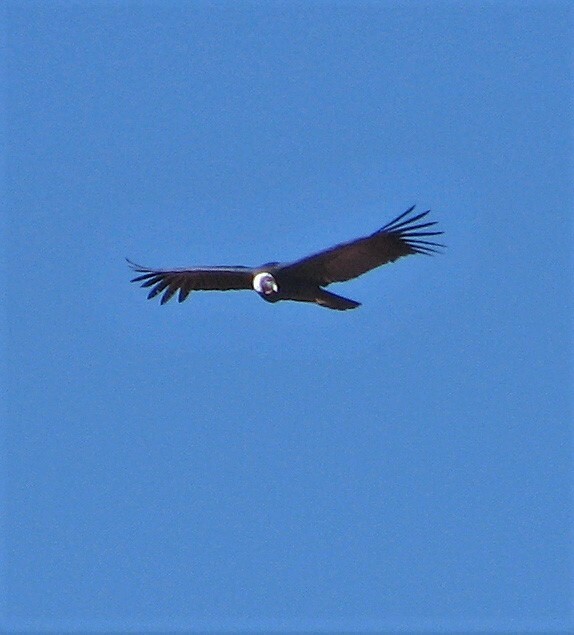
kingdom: Animalia
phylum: Chordata
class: Aves
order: Accipitriformes
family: Cathartidae
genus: Vultur
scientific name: Vultur gryphus
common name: Andean condor
